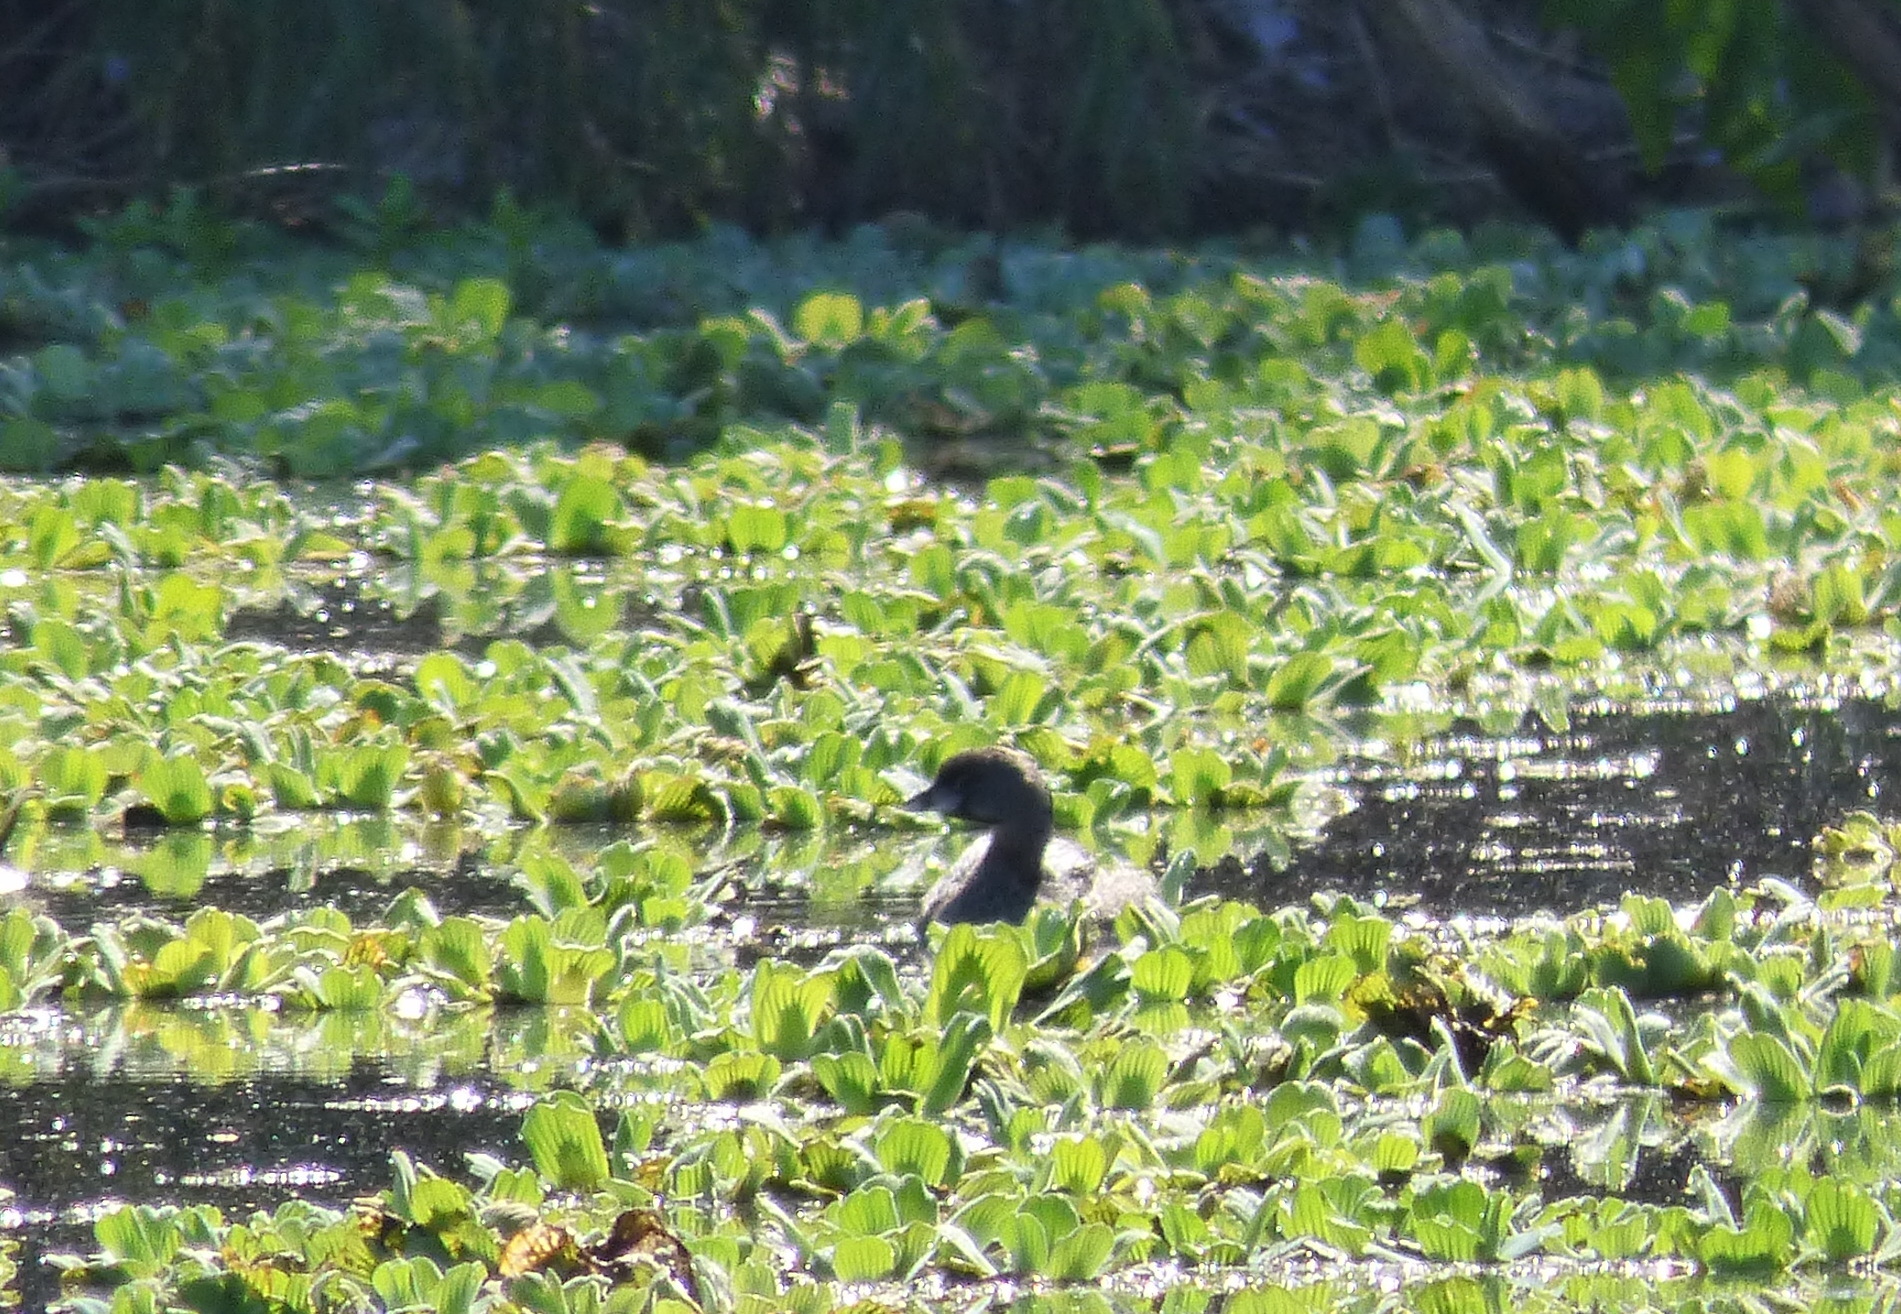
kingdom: Animalia
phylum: Chordata
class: Aves
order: Podicipediformes
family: Podicipedidae
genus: Podilymbus
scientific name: Podilymbus podiceps
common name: Pied-billed grebe
